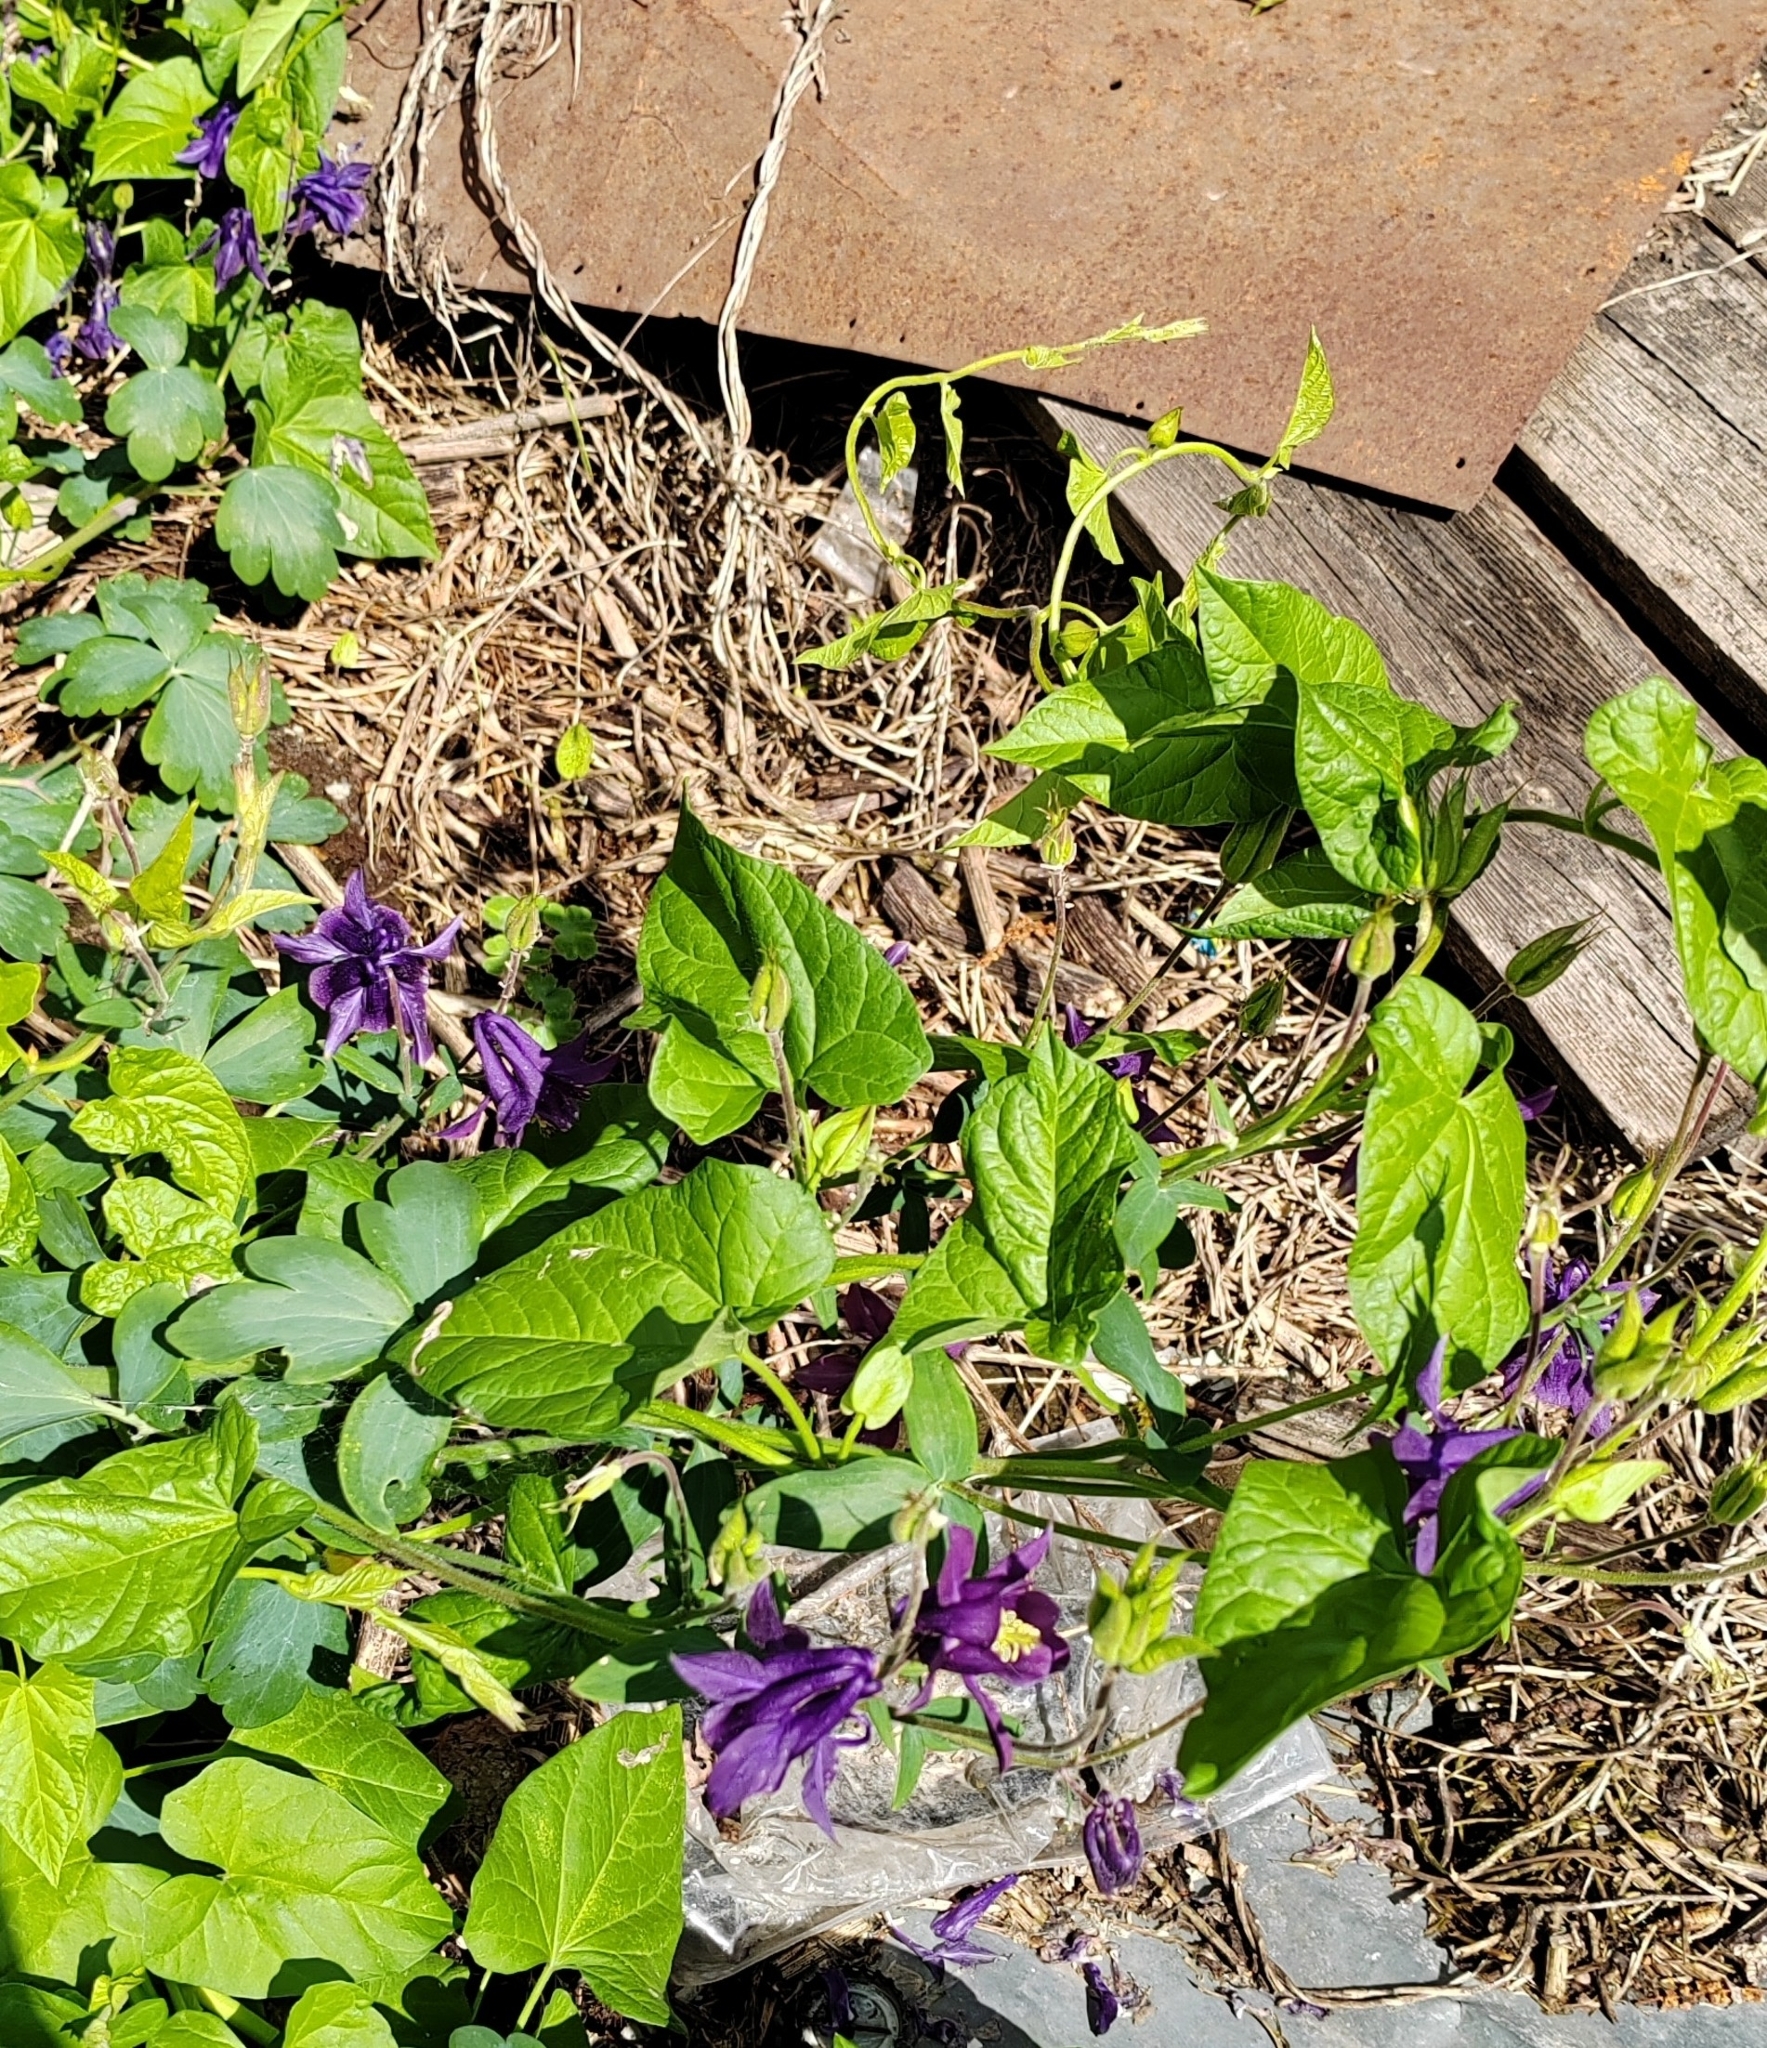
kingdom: Plantae
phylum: Tracheophyta
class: Magnoliopsida
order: Ranunculales
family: Ranunculaceae
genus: Aquilegia
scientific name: Aquilegia vulgaris
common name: Columbine
